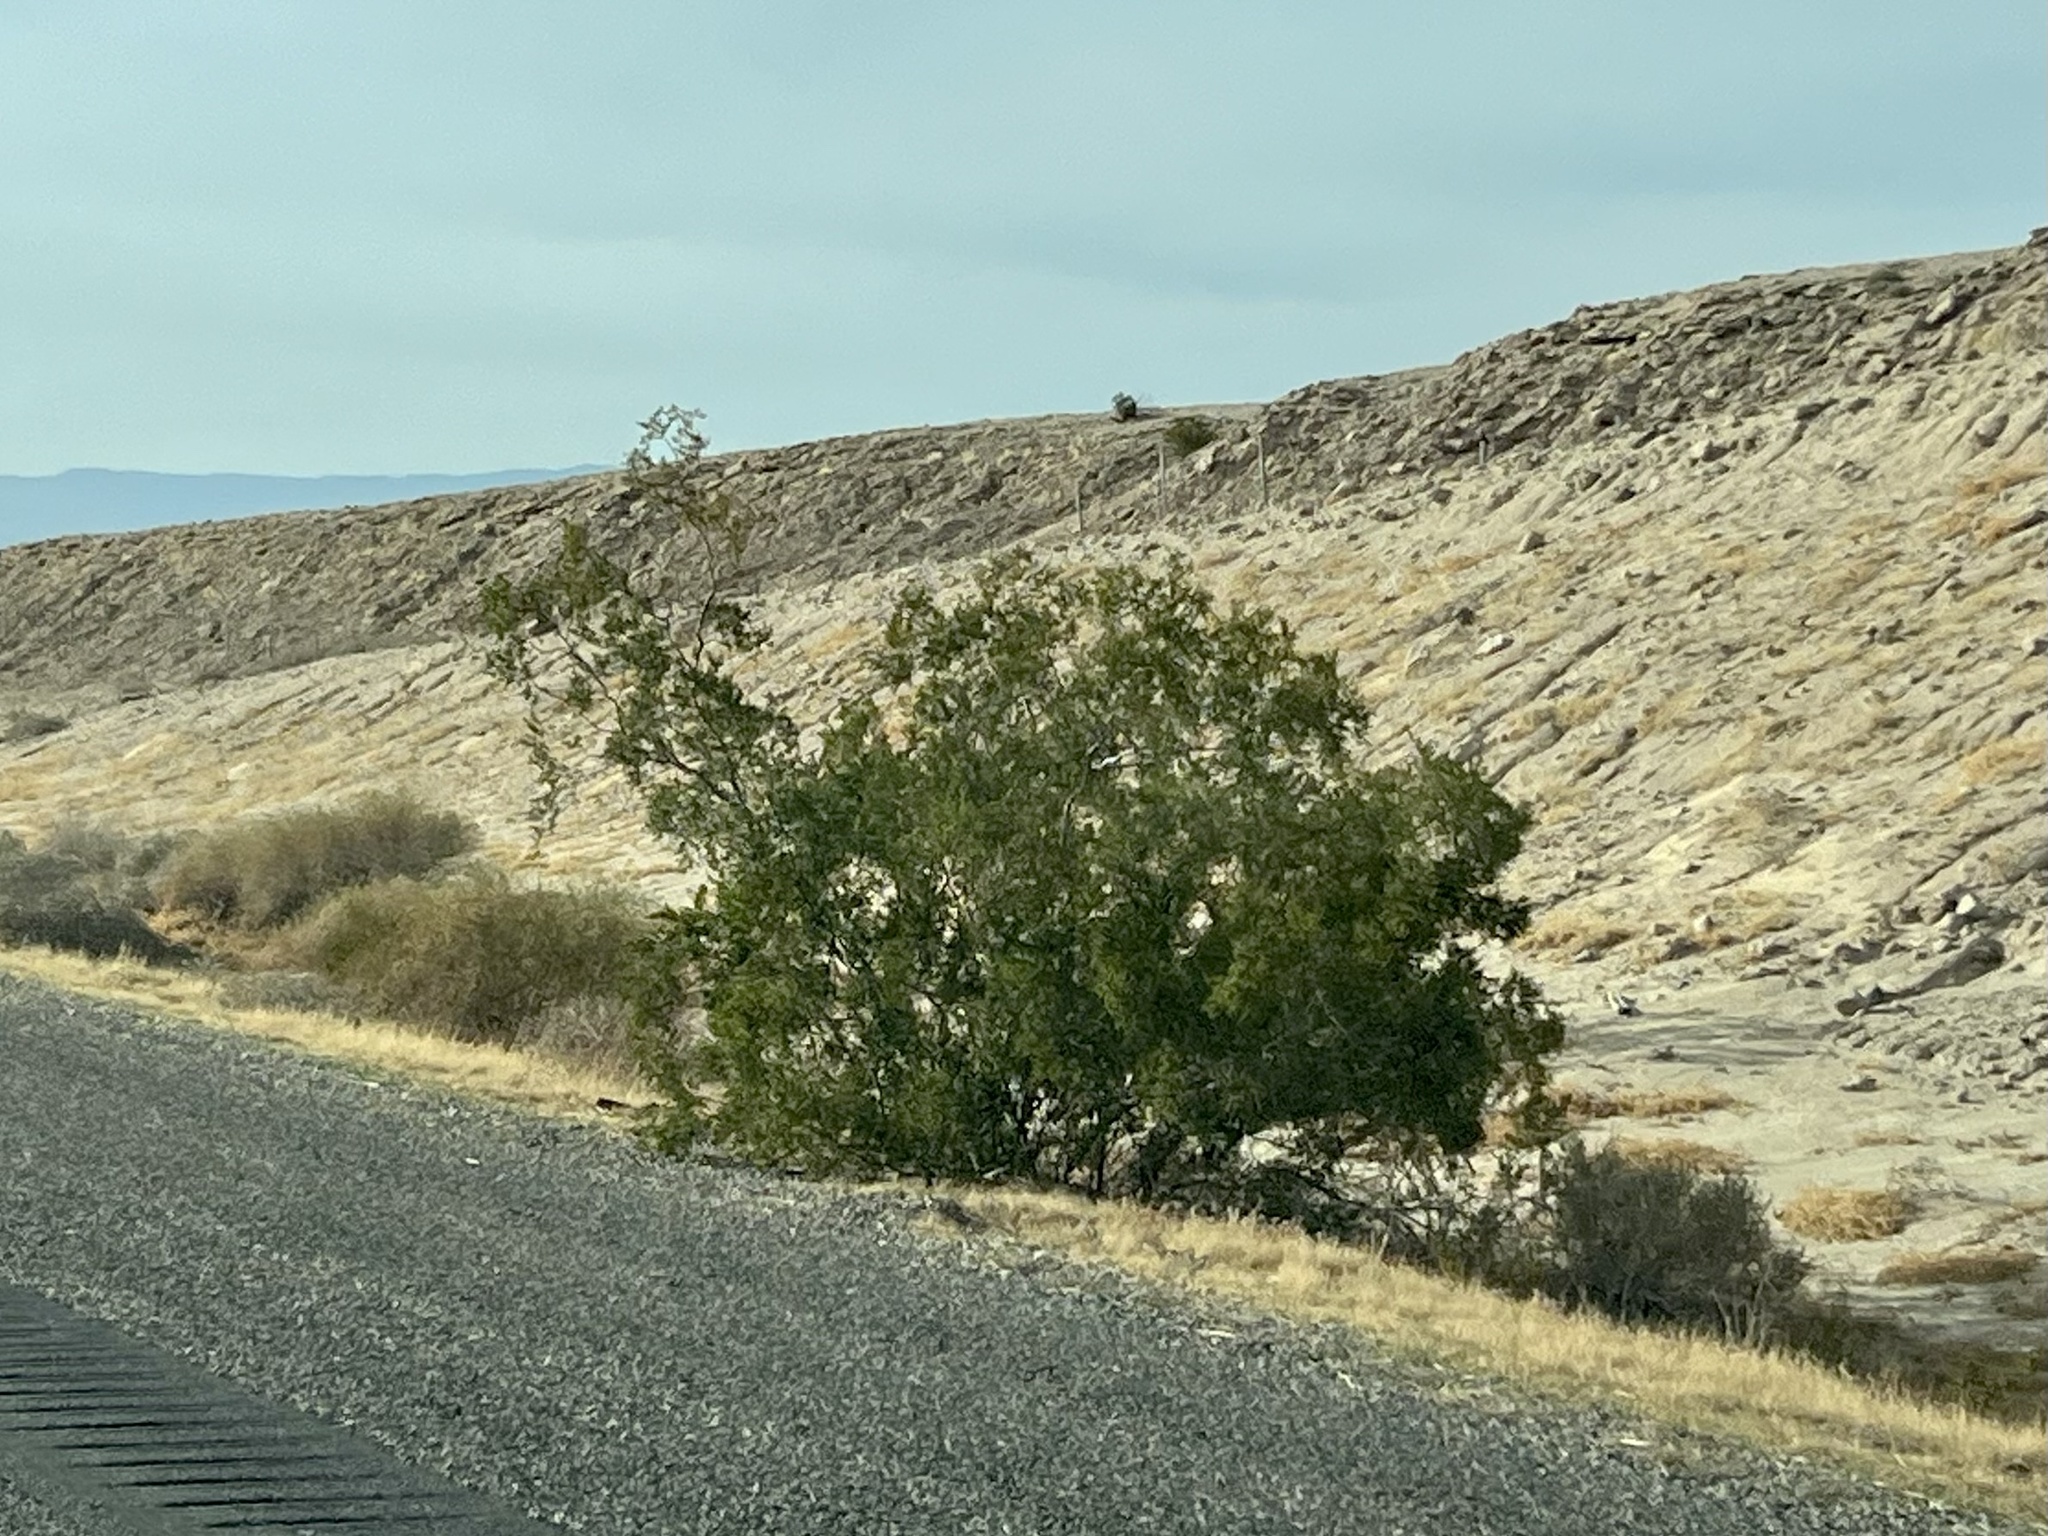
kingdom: Plantae
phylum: Tracheophyta
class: Magnoliopsida
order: Zygophyllales
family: Zygophyllaceae
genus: Larrea
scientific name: Larrea tridentata
